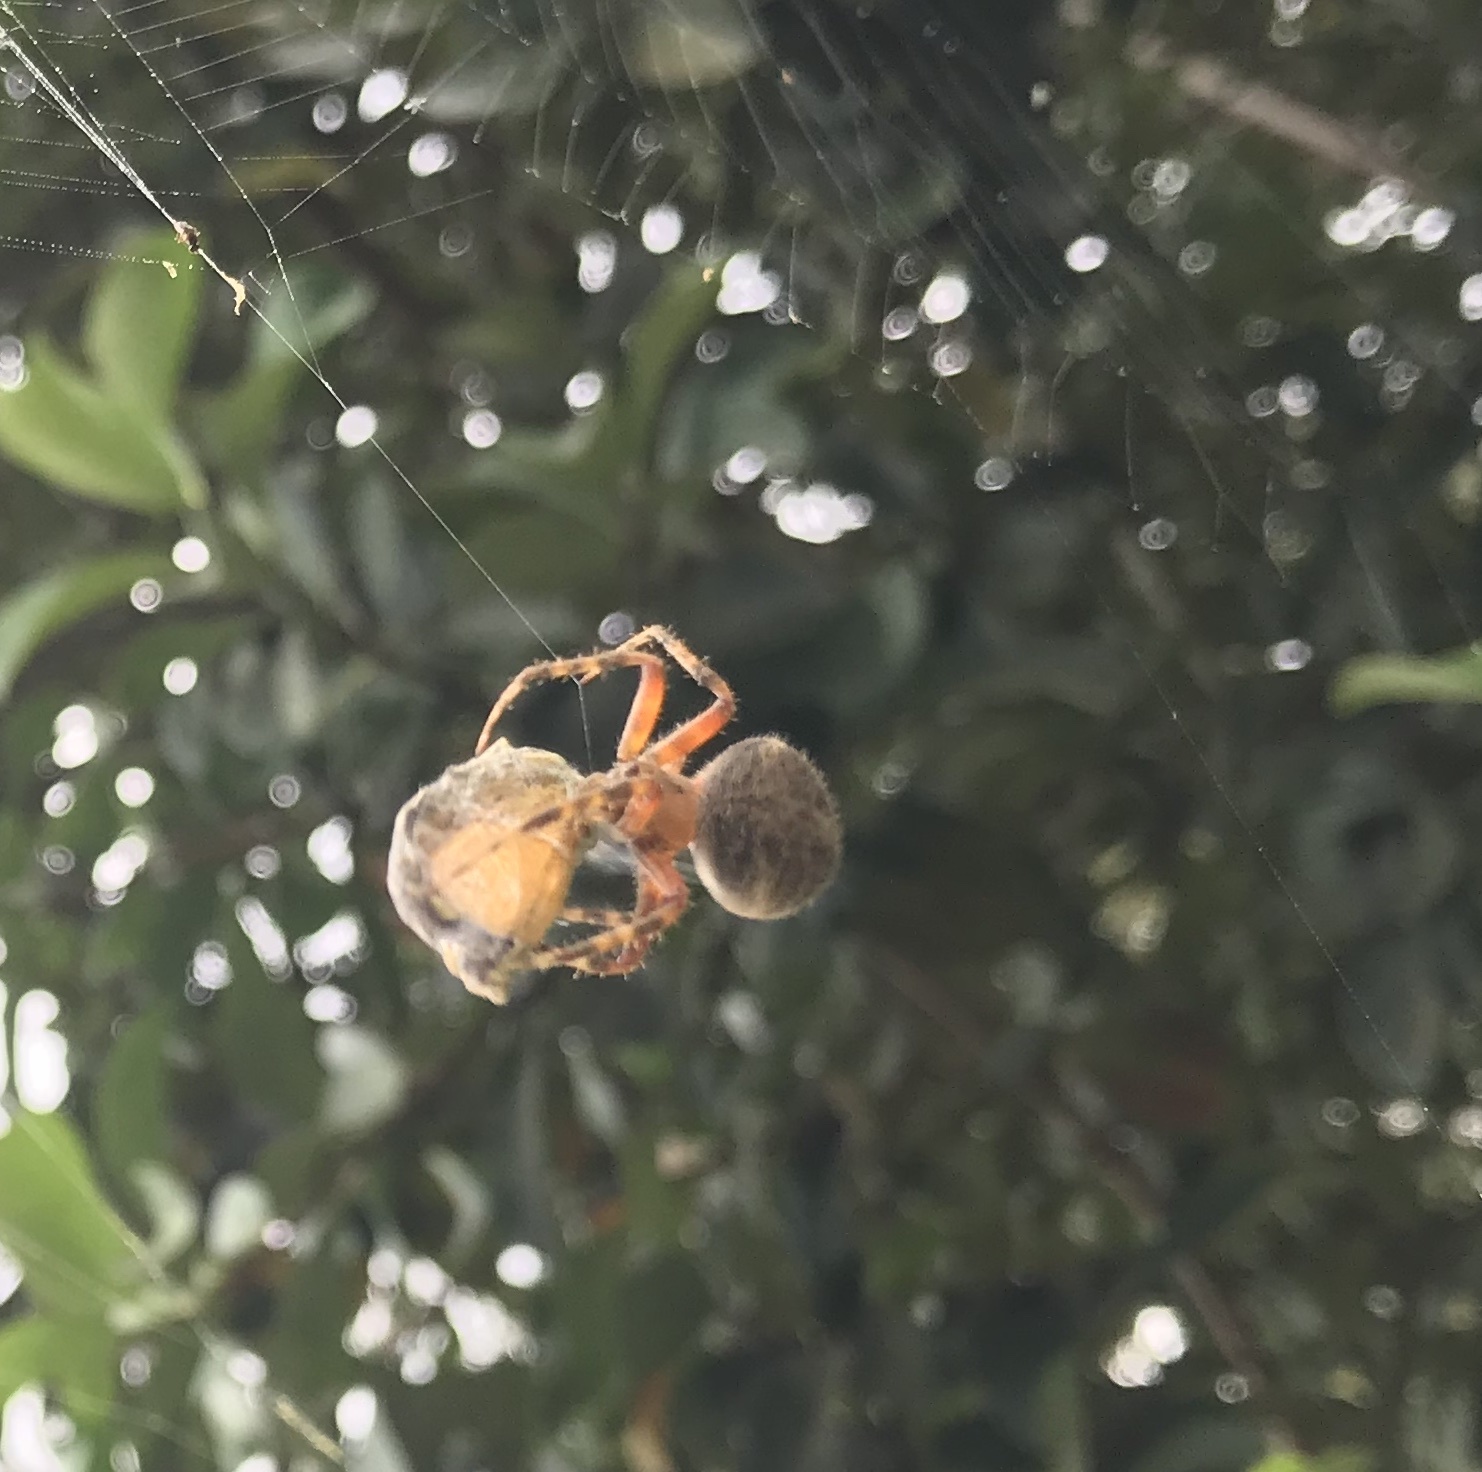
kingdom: Animalia
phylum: Arthropoda
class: Arachnida
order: Araneae
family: Araneidae
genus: Neoscona
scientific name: Neoscona crucifera
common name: Spotted orbweaver
